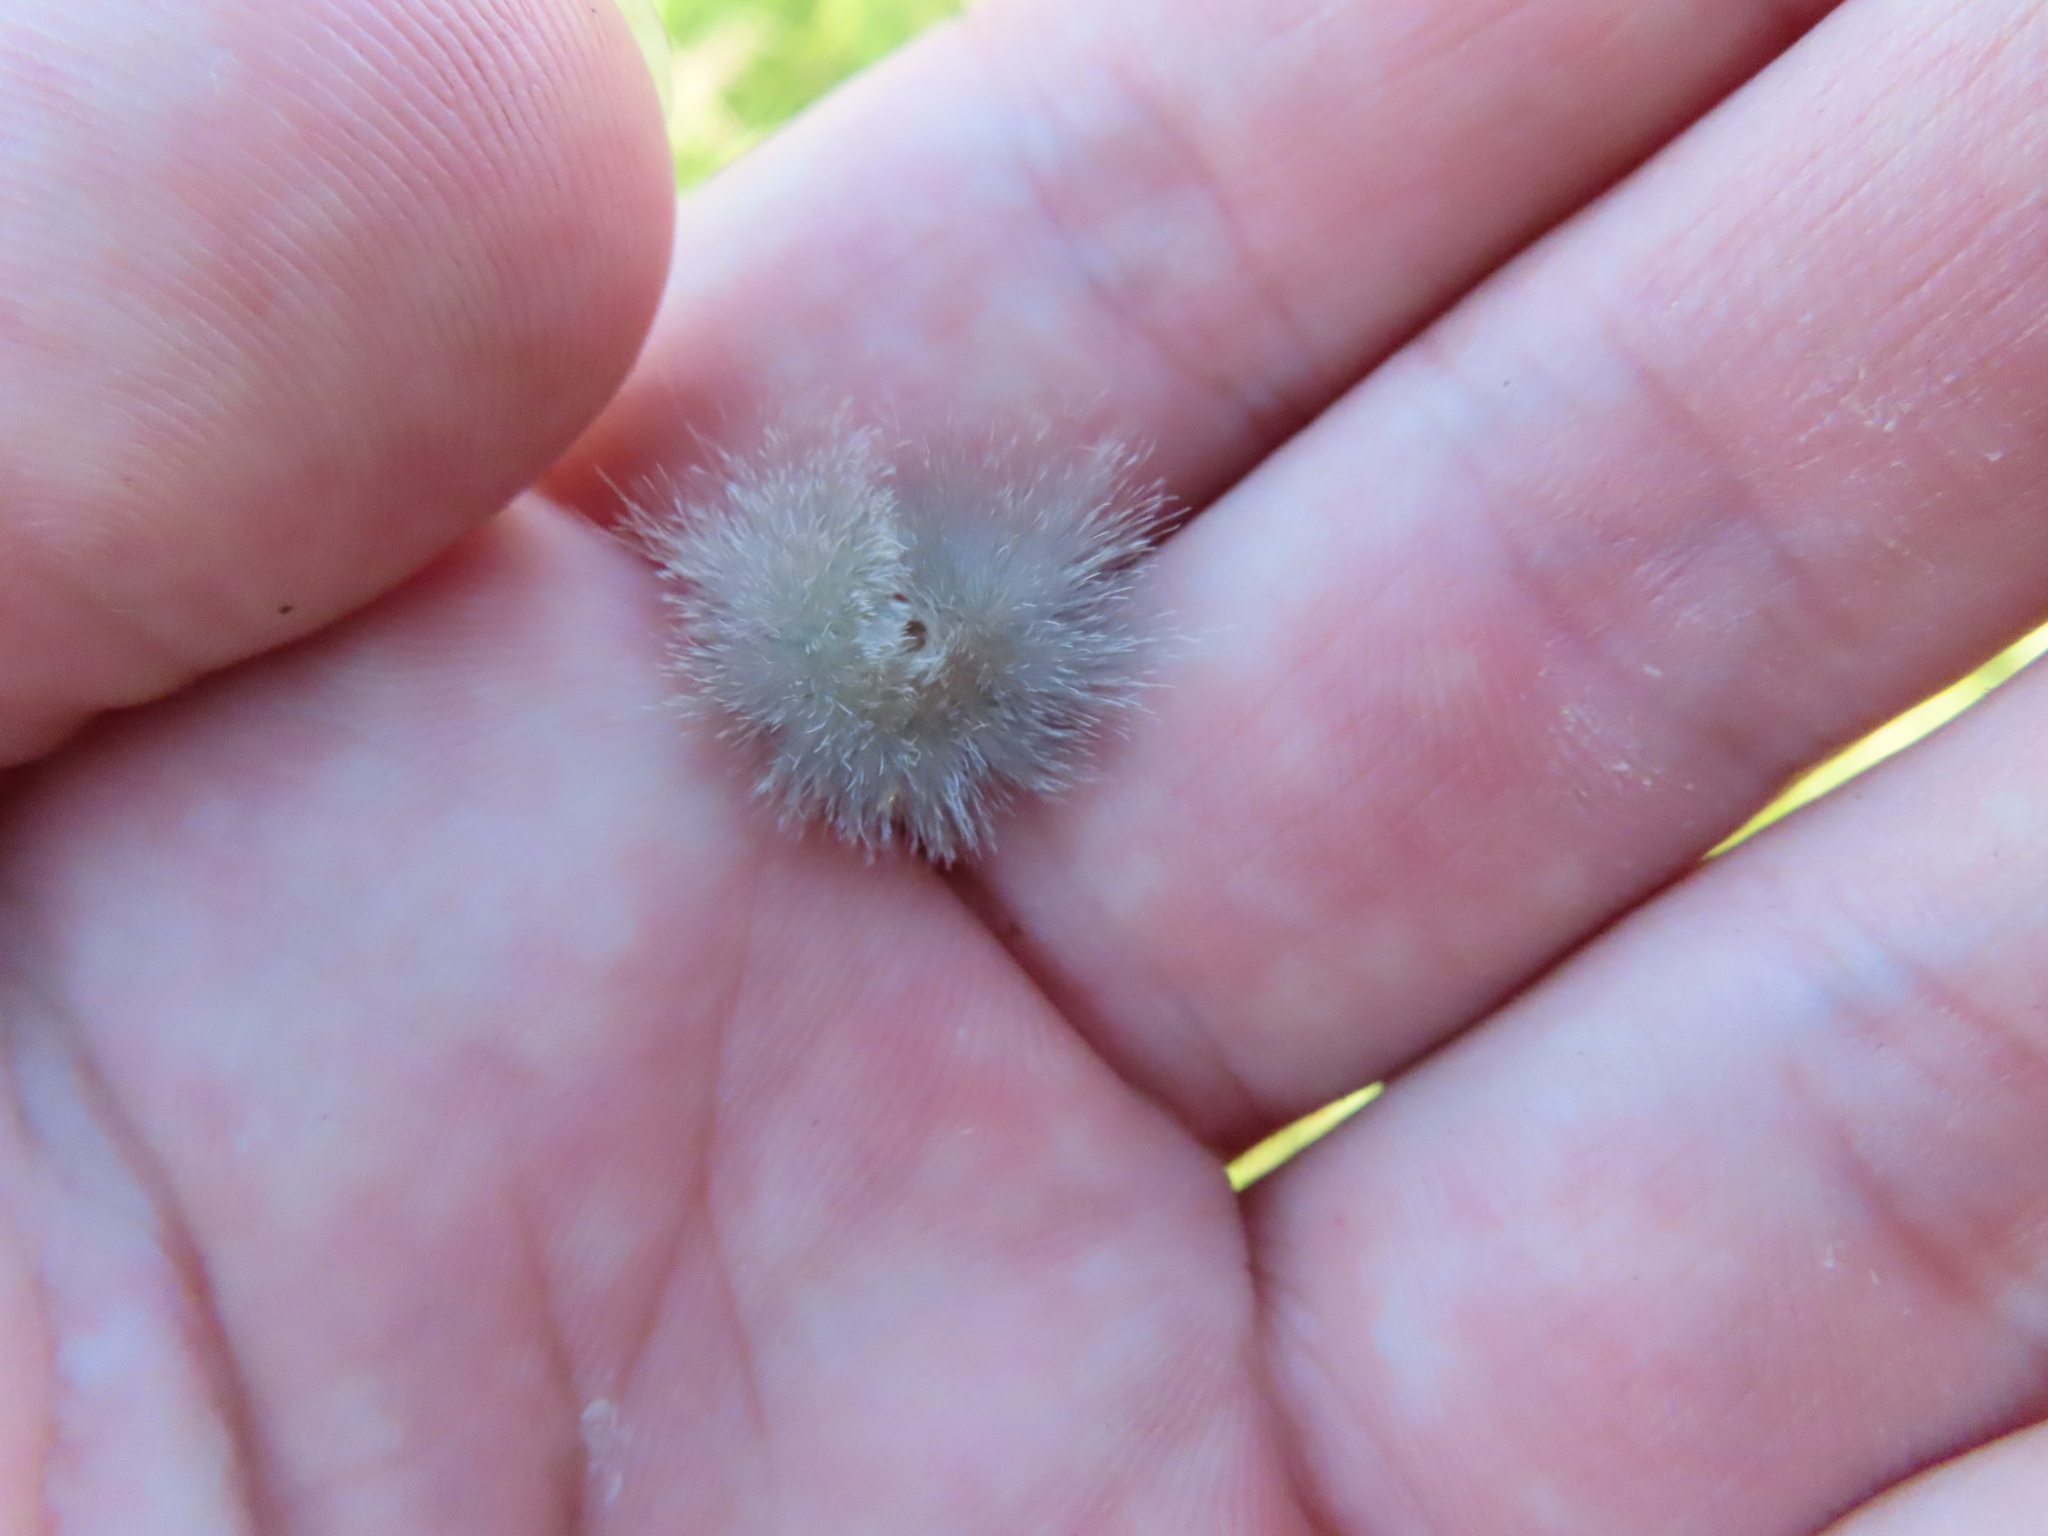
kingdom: Animalia
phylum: Arthropoda
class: Insecta
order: Lepidoptera
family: Erebidae
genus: Cycnia
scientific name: Cycnia tenera
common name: Delicate cycnia moth
